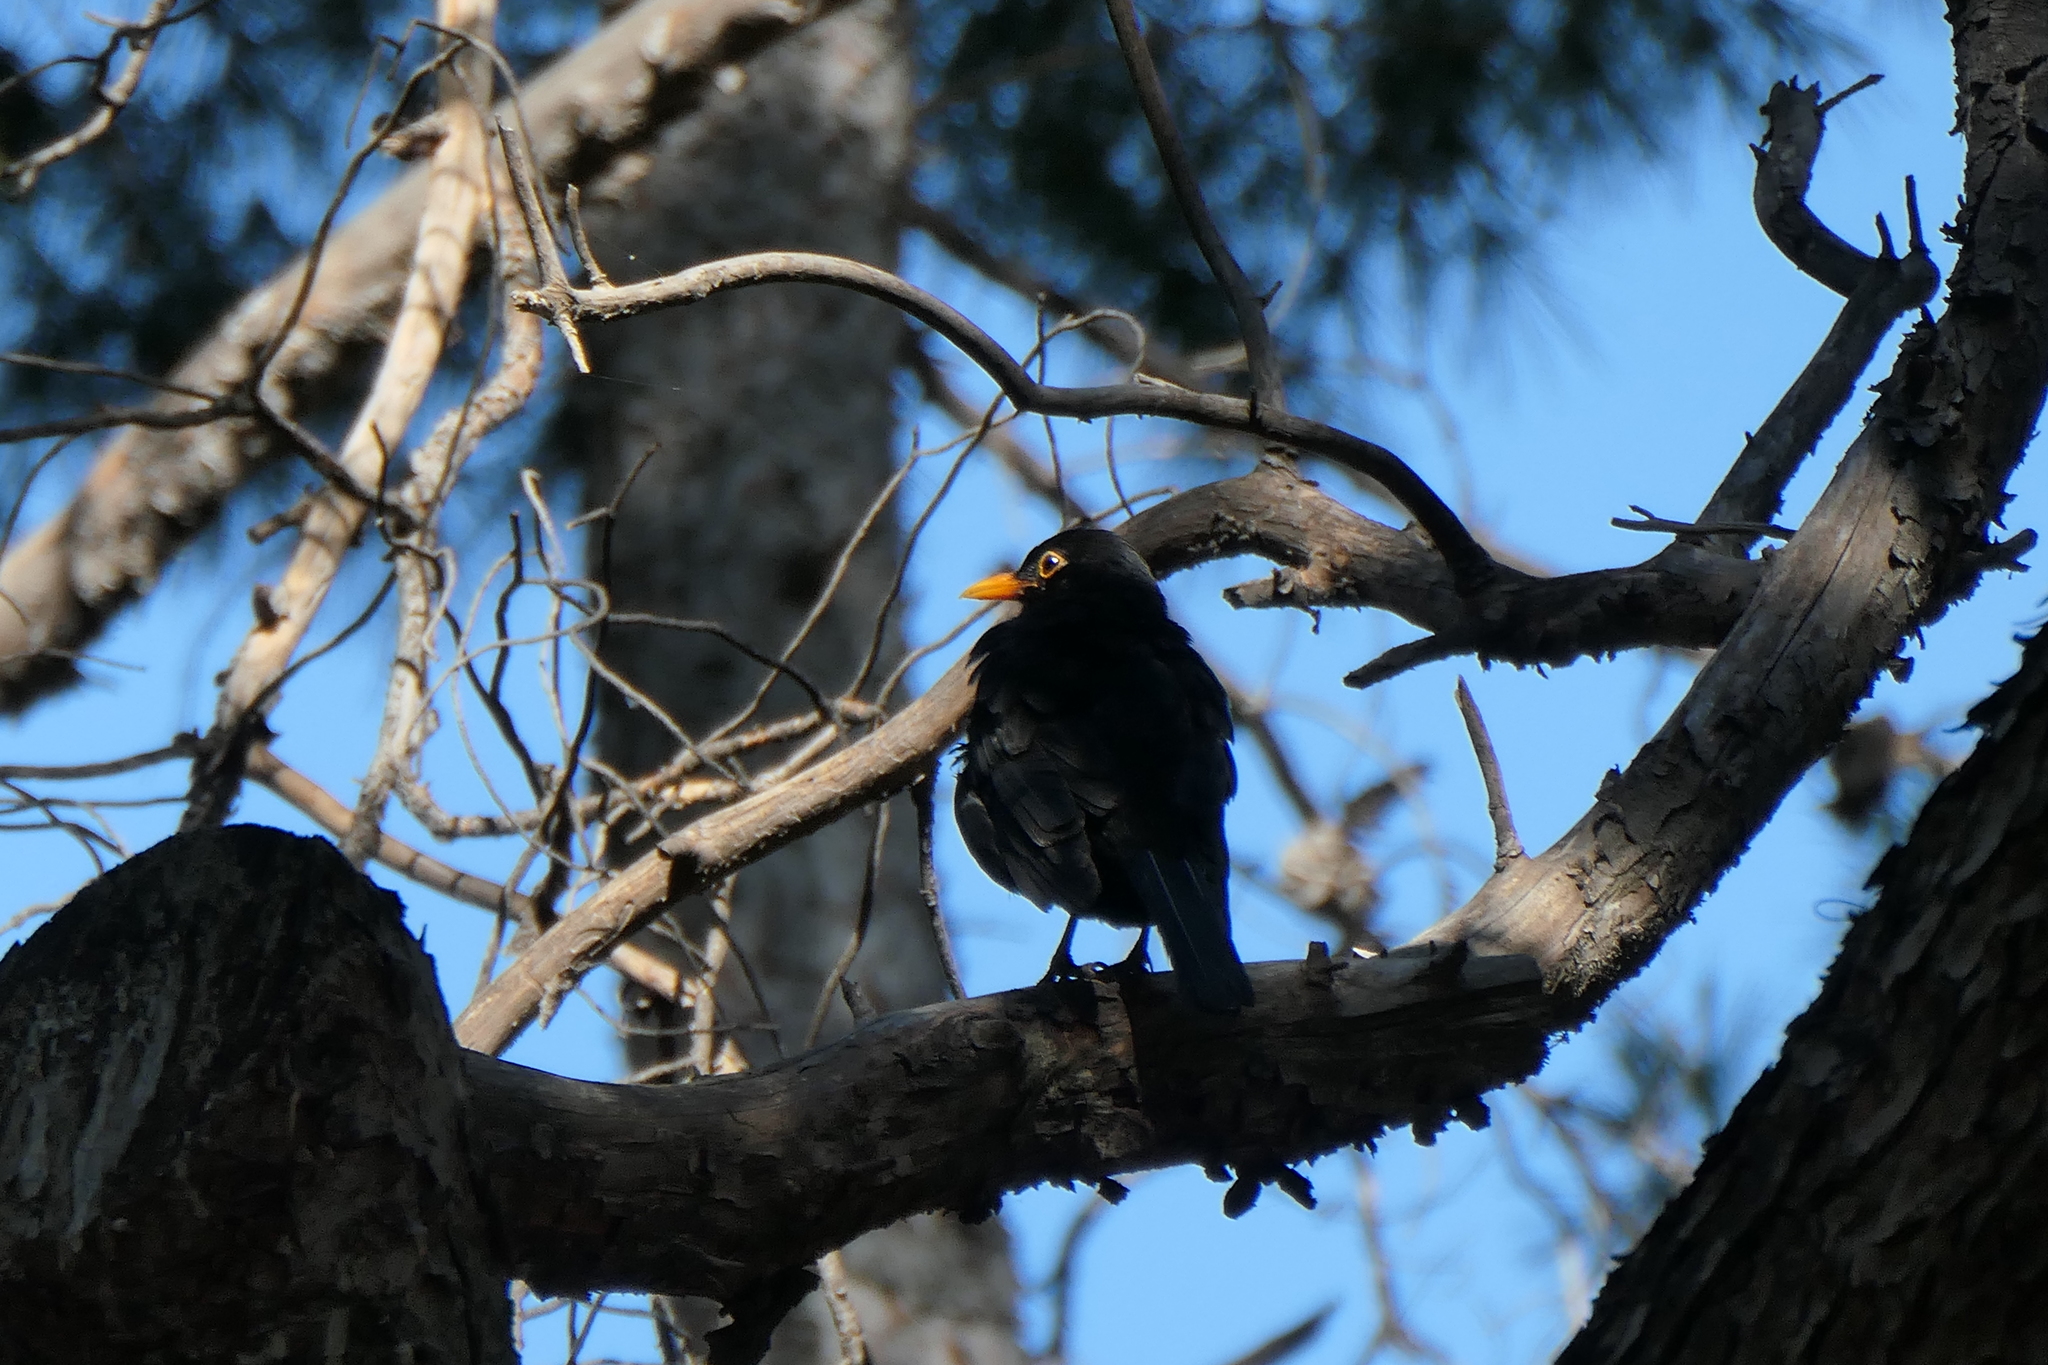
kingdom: Animalia
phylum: Chordata
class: Aves
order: Passeriformes
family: Turdidae
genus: Turdus
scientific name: Turdus merula
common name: Common blackbird
